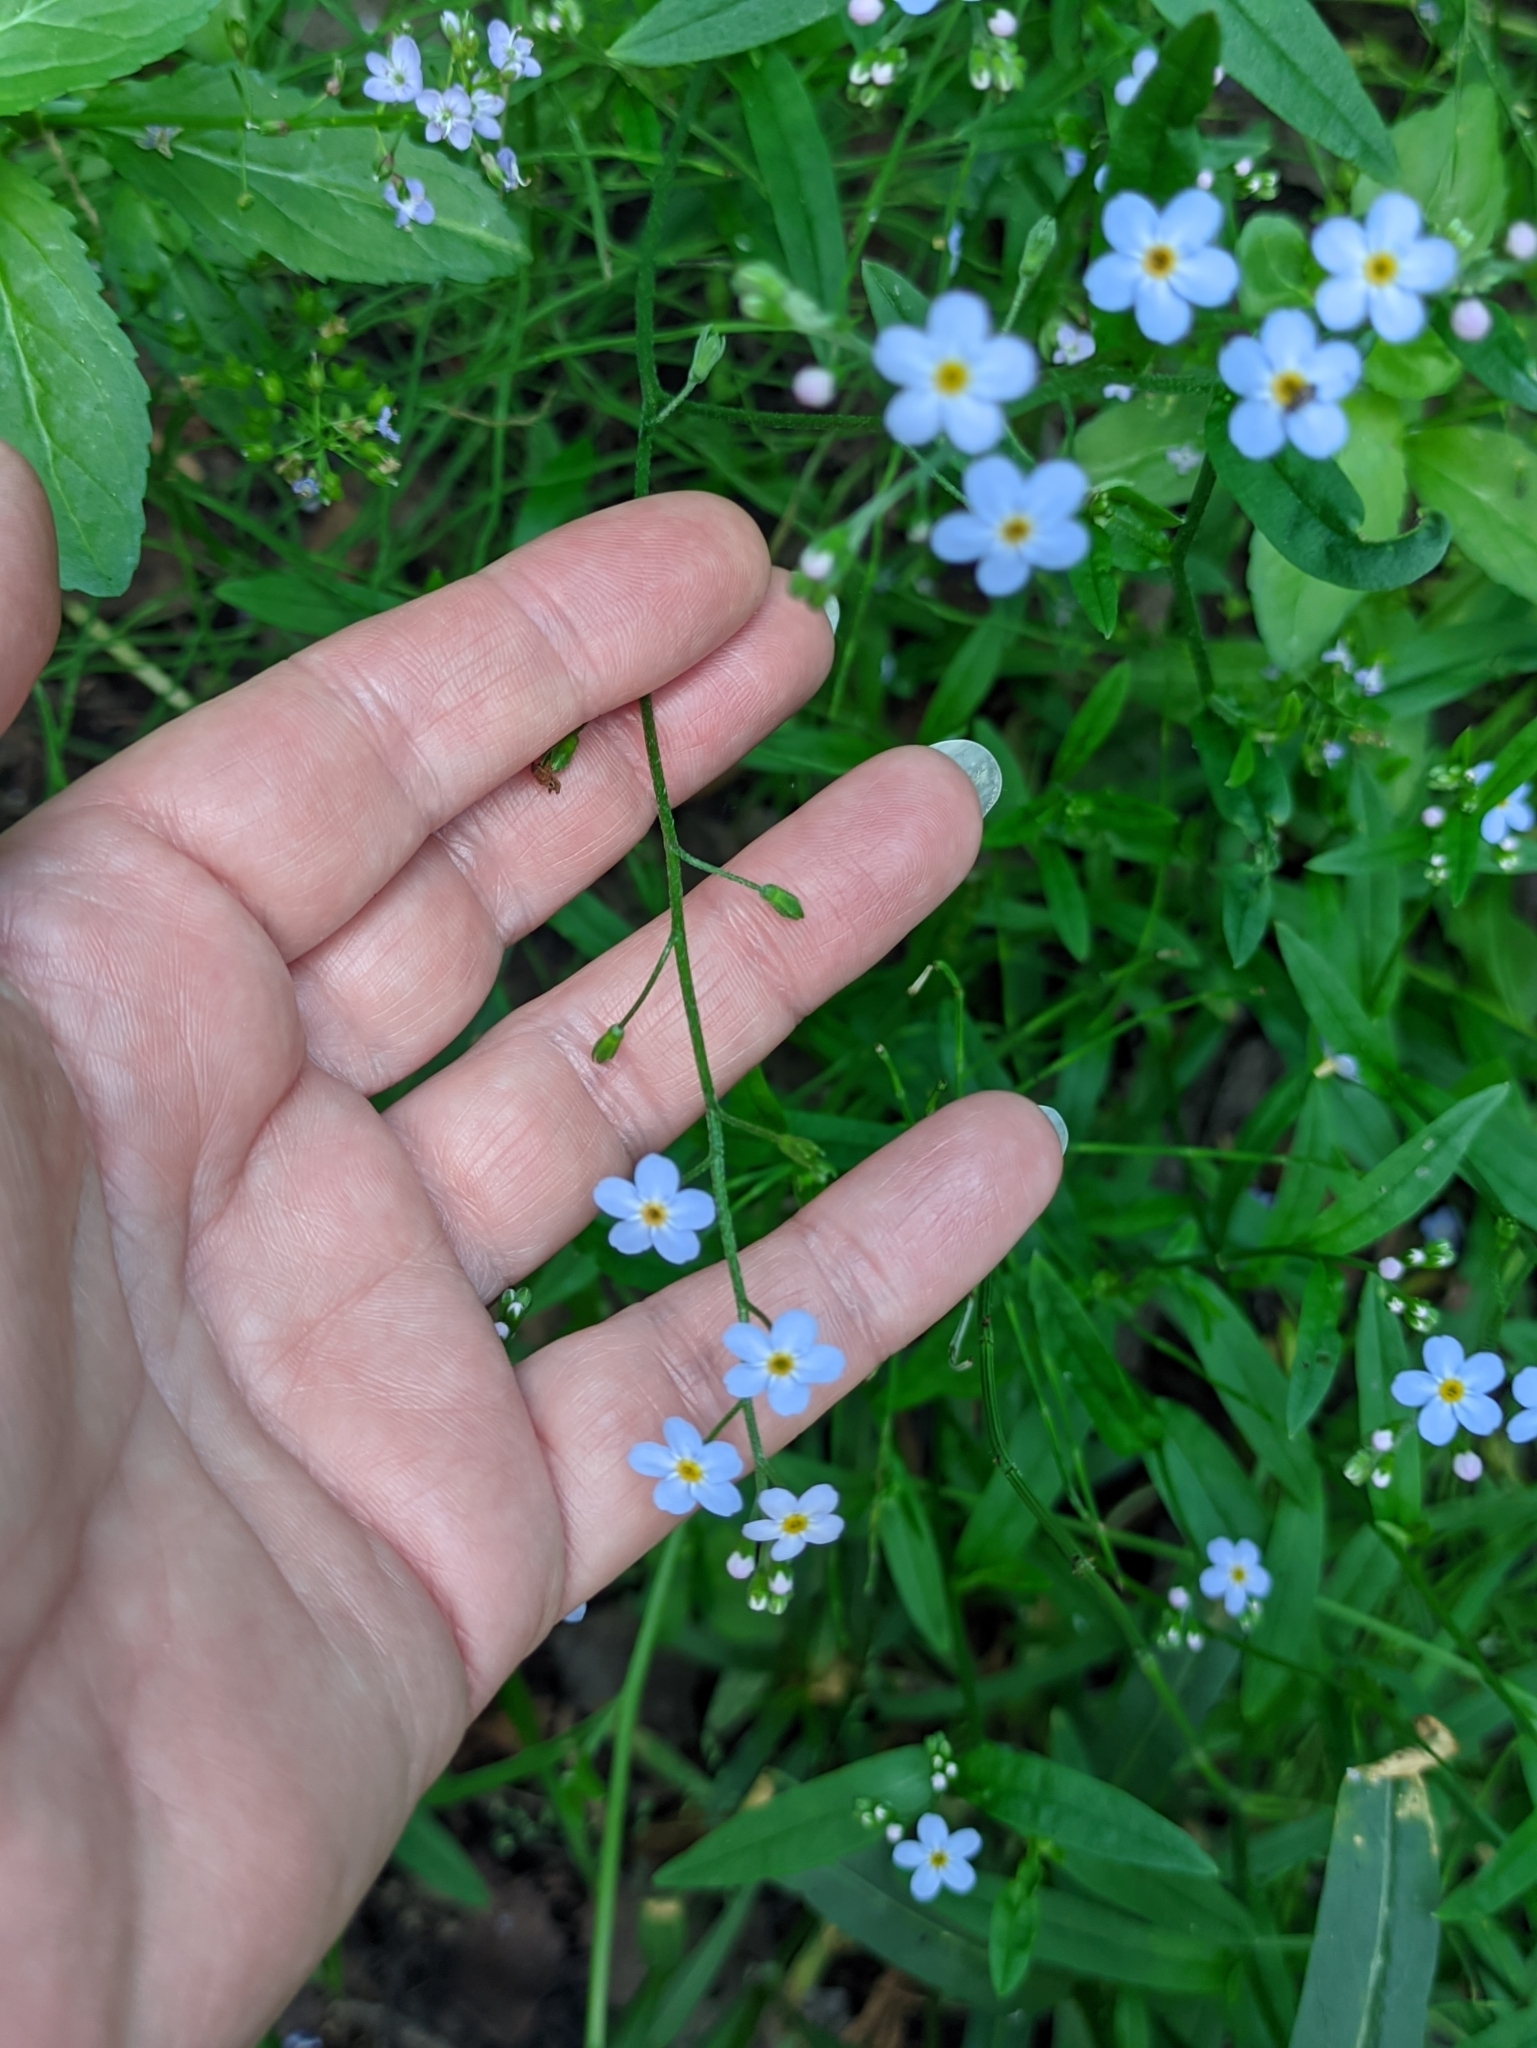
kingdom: Plantae
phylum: Tracheophyta
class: Magnoliopsida
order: Boraginales
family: Boraginaceae
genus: Myosotis
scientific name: Myosotis scorpioides
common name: Water forget-me-not
